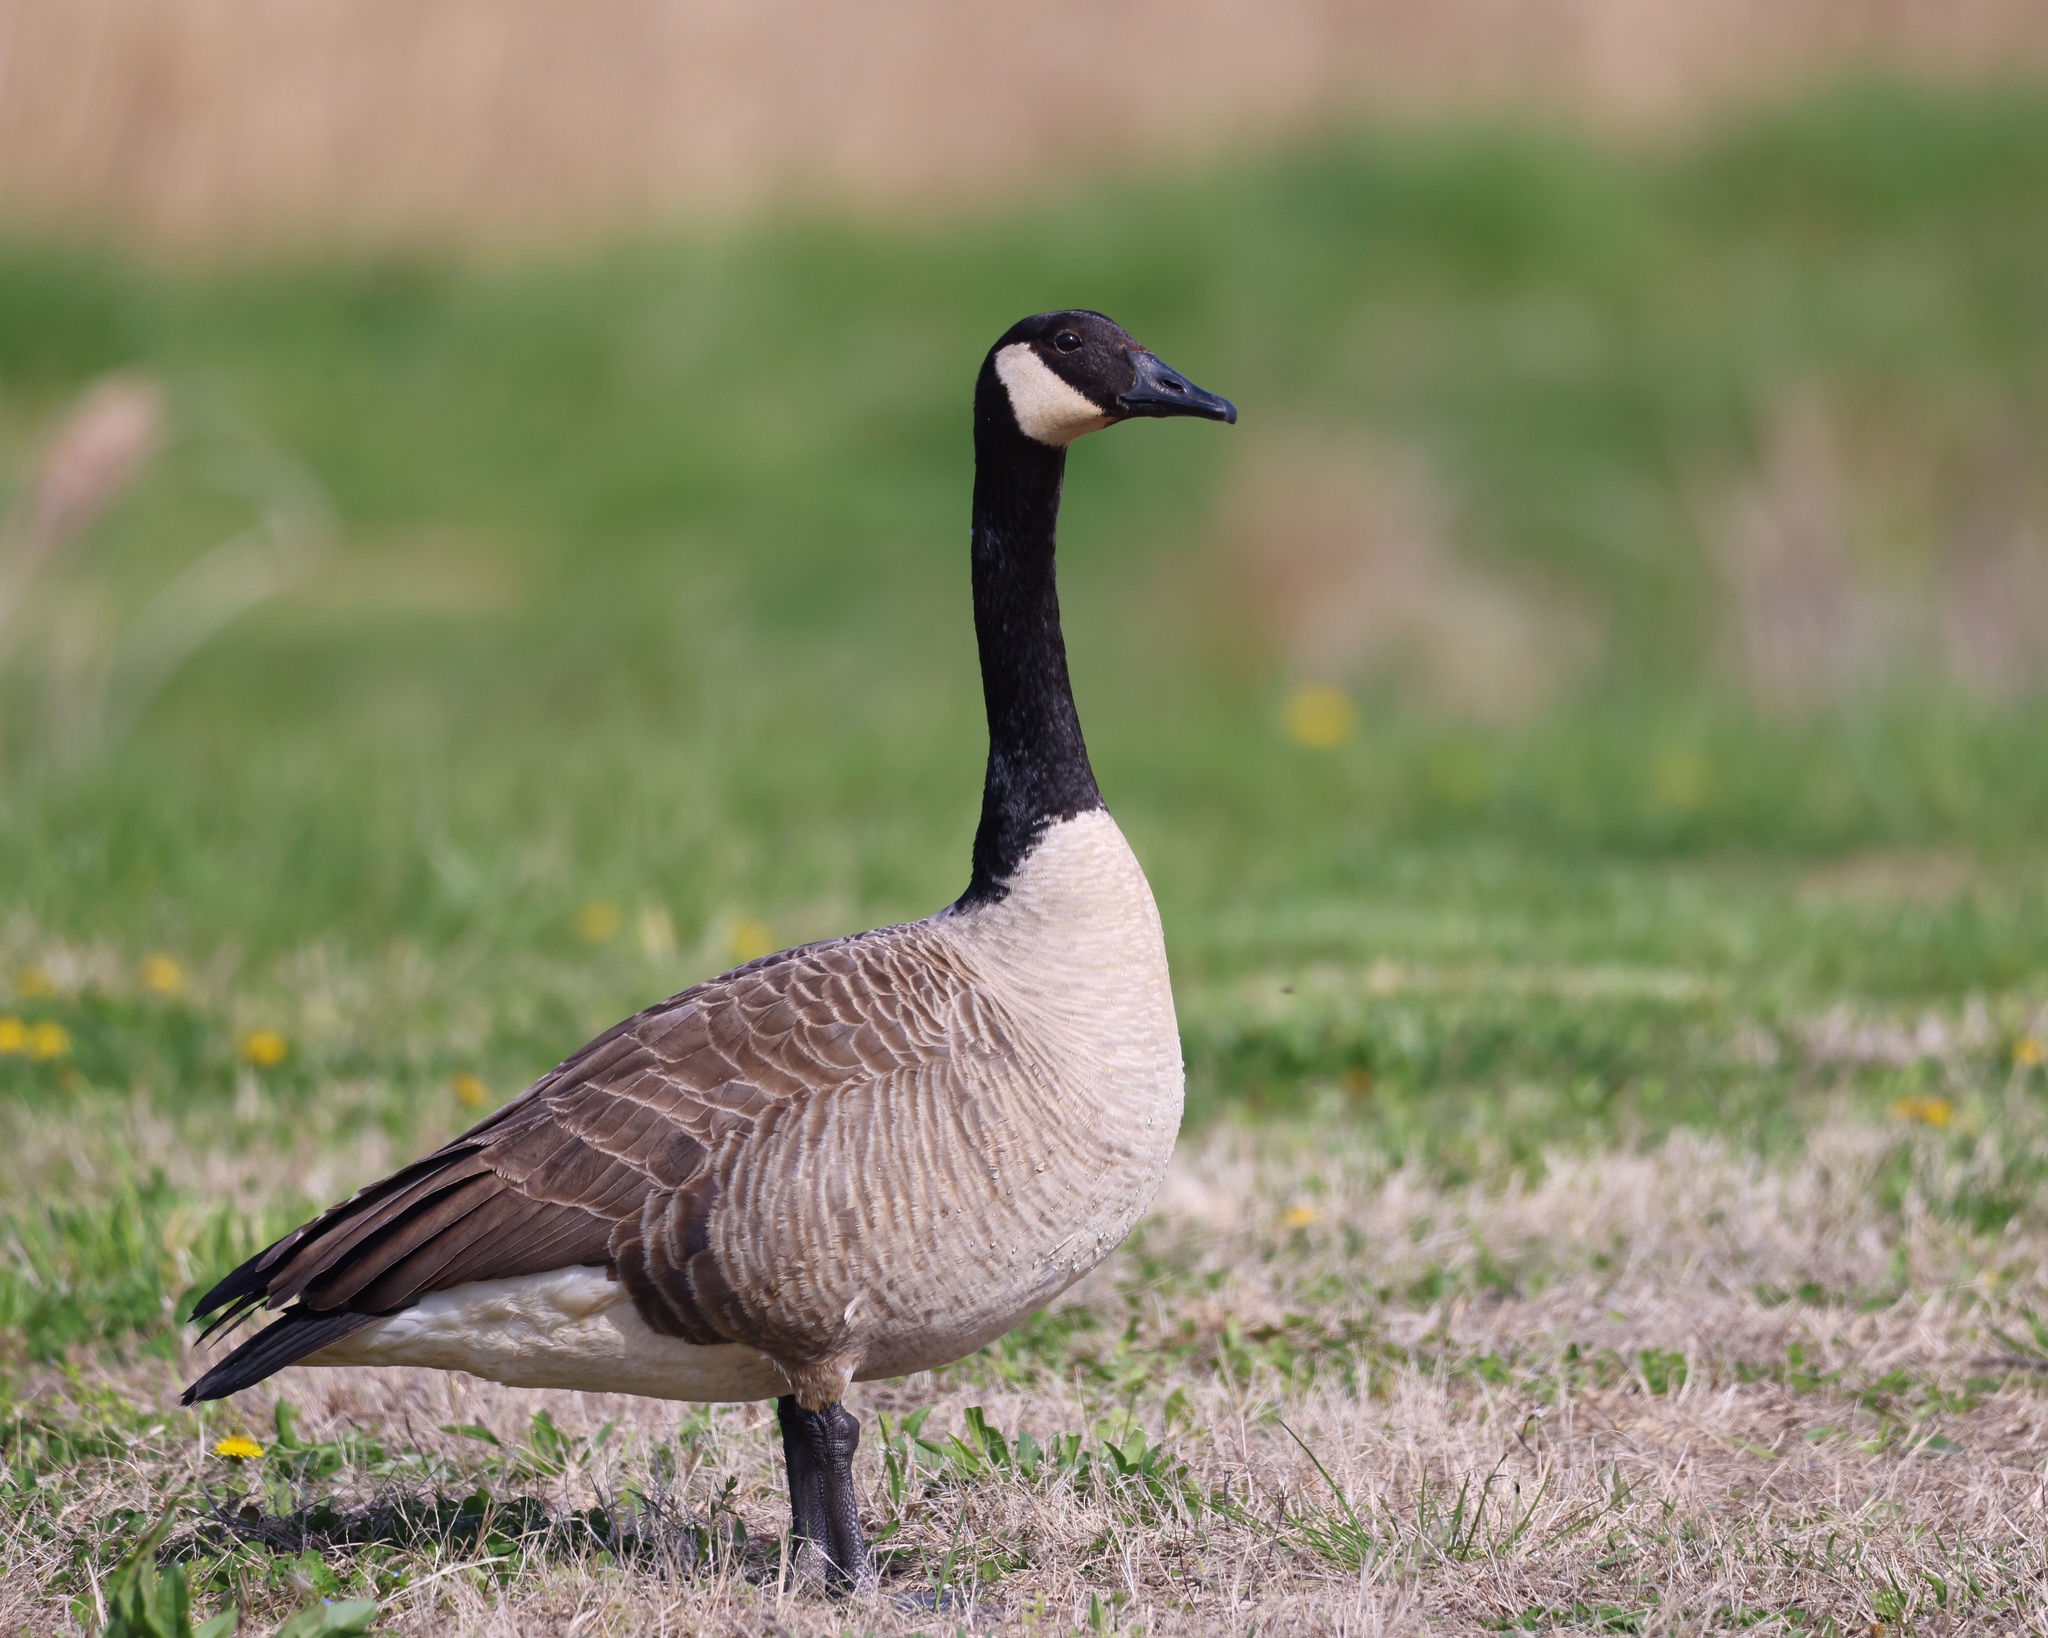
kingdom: Animalia
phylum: Chordata
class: Aves
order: Anseriformes
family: Anatidae
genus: Branta
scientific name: Branta canadensis
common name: Canada goose
